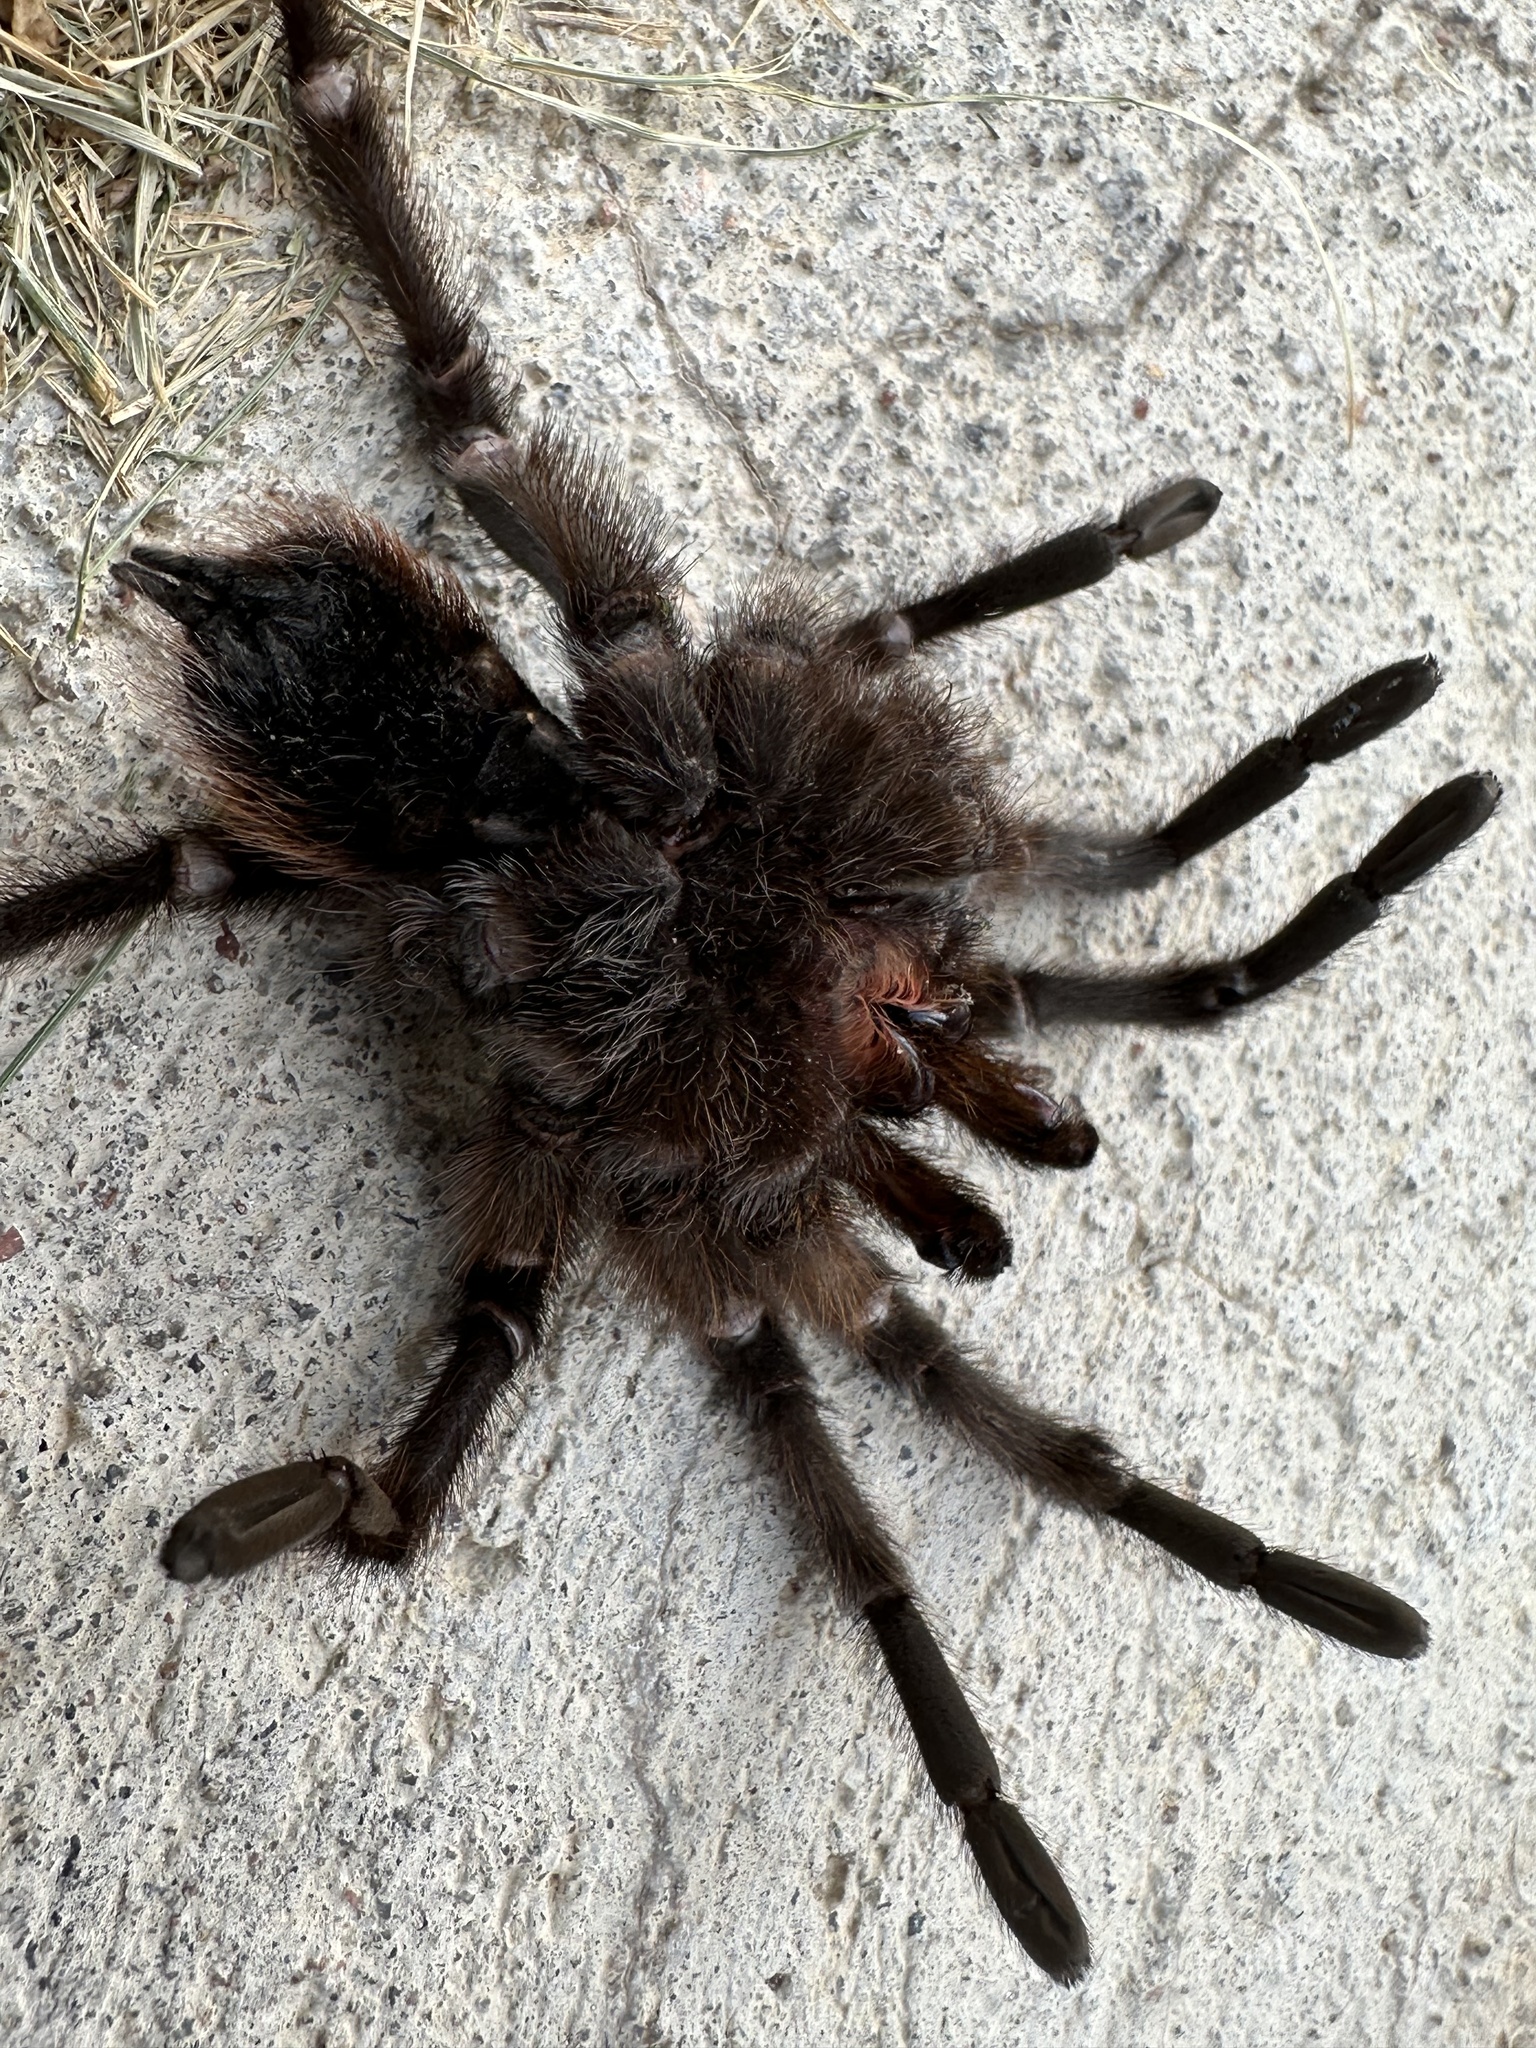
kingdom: Animalia
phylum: Arthropoda
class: Arachnida
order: Araneae
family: Theraphosidae
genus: Aphonopelma
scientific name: Aphonopelma hentzi
